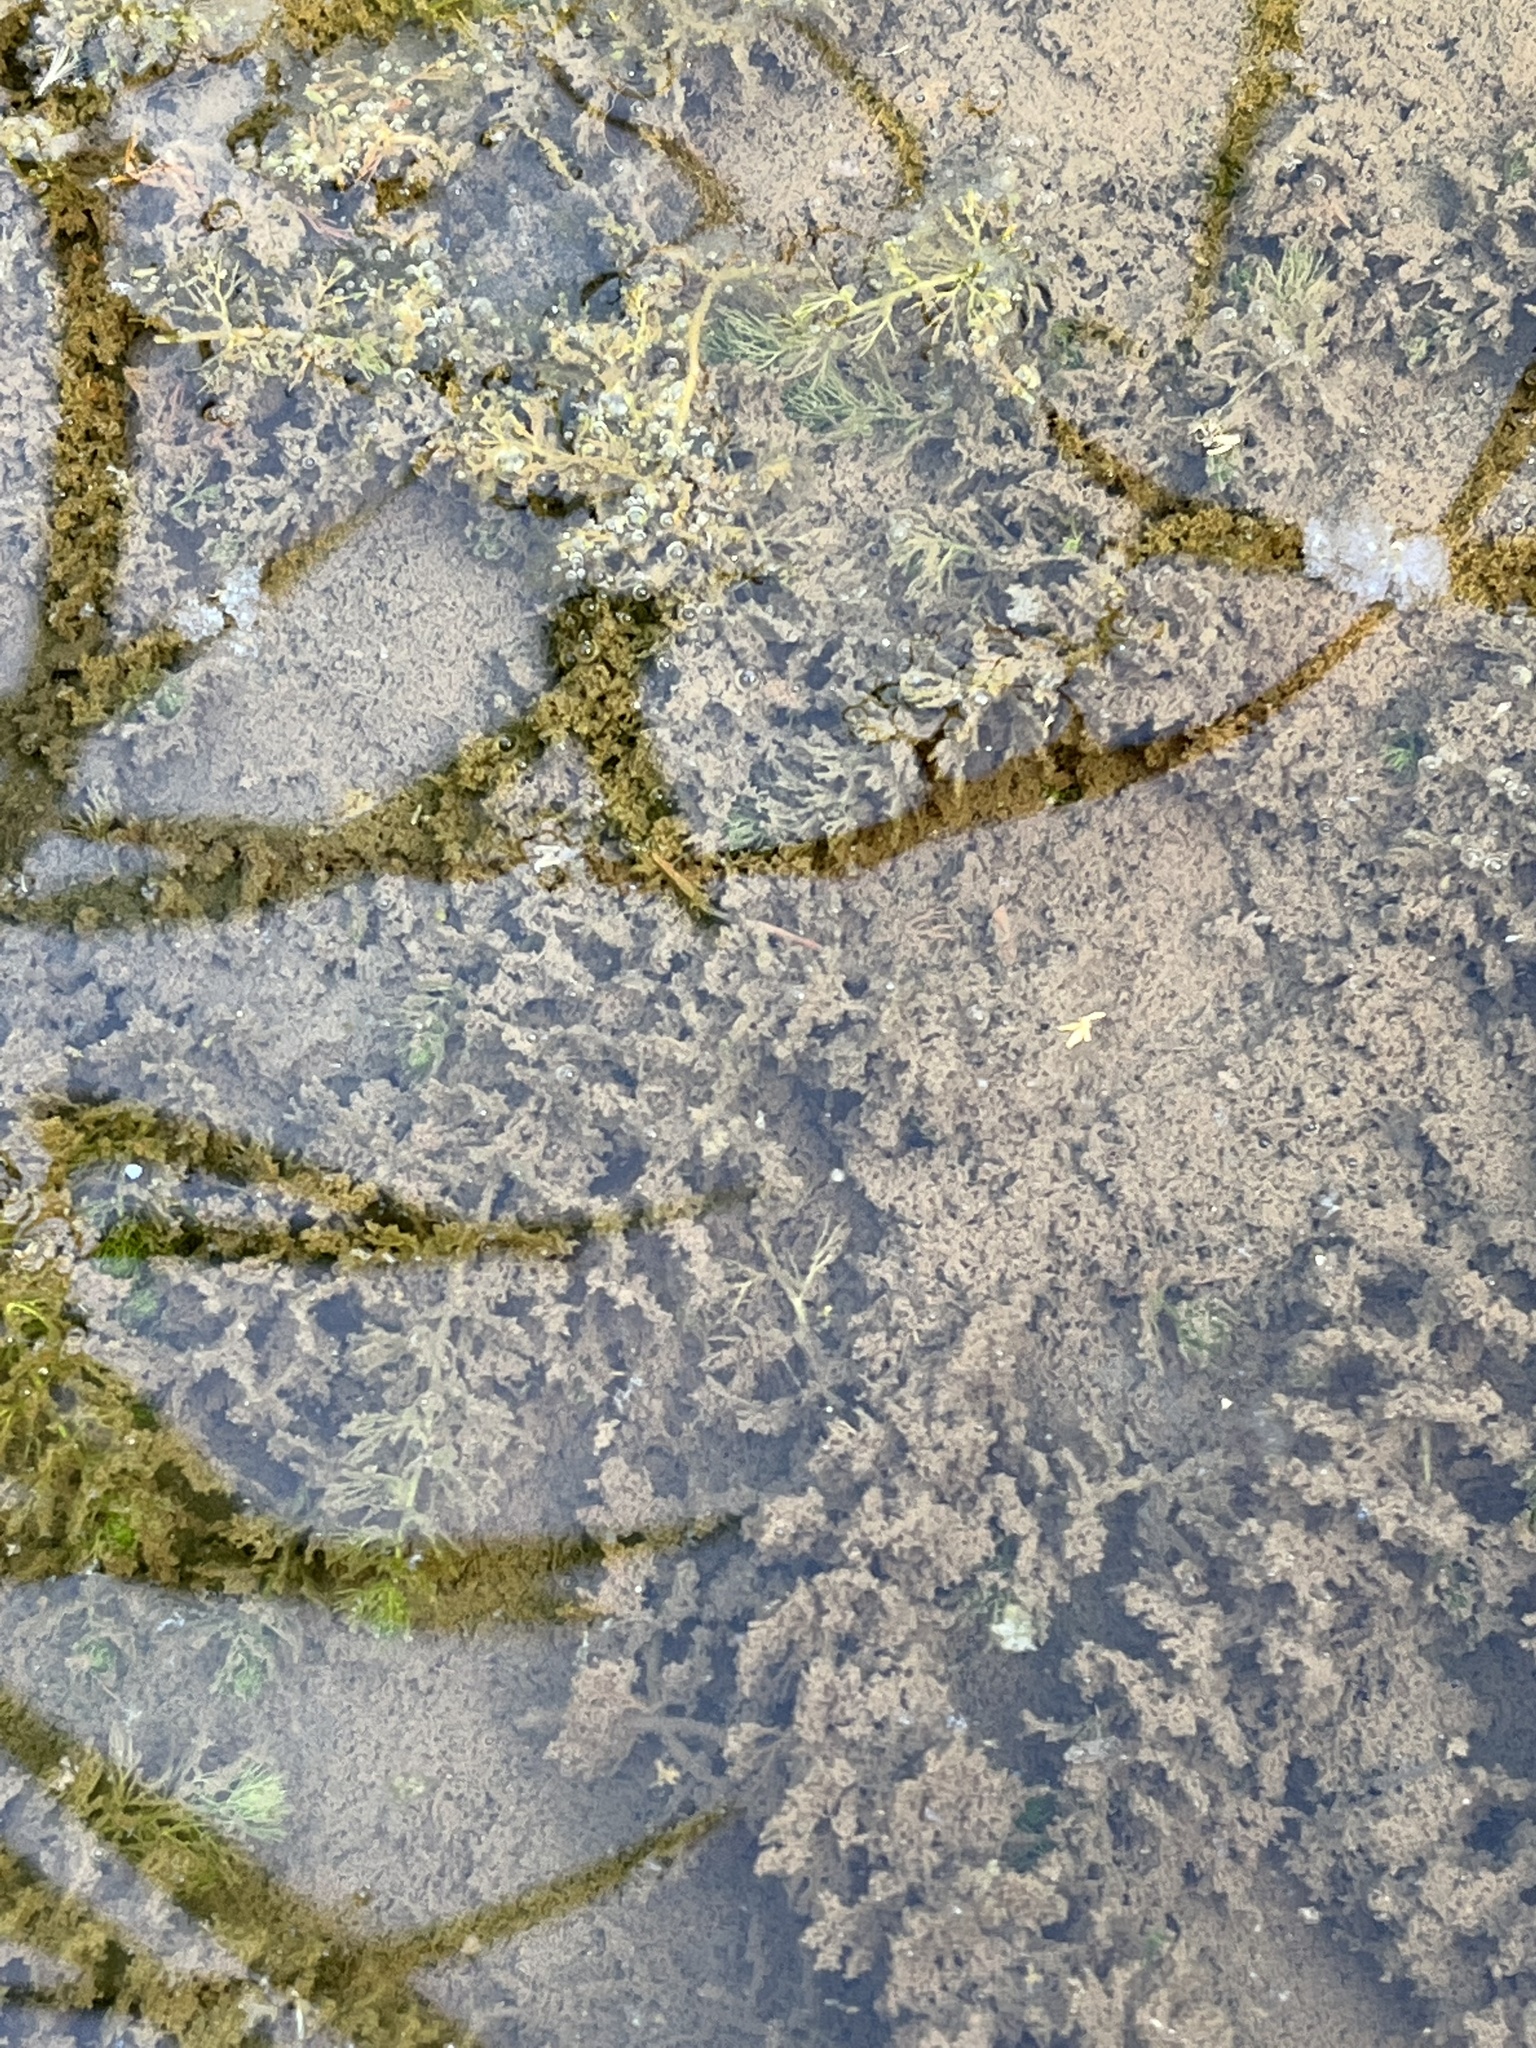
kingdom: Plantae
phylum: Tracheophyta
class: Magnoliopsida
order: Lamiales
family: Lentibulariaceae
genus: Utricularia
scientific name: Utricularia australis
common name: Bladderwort
